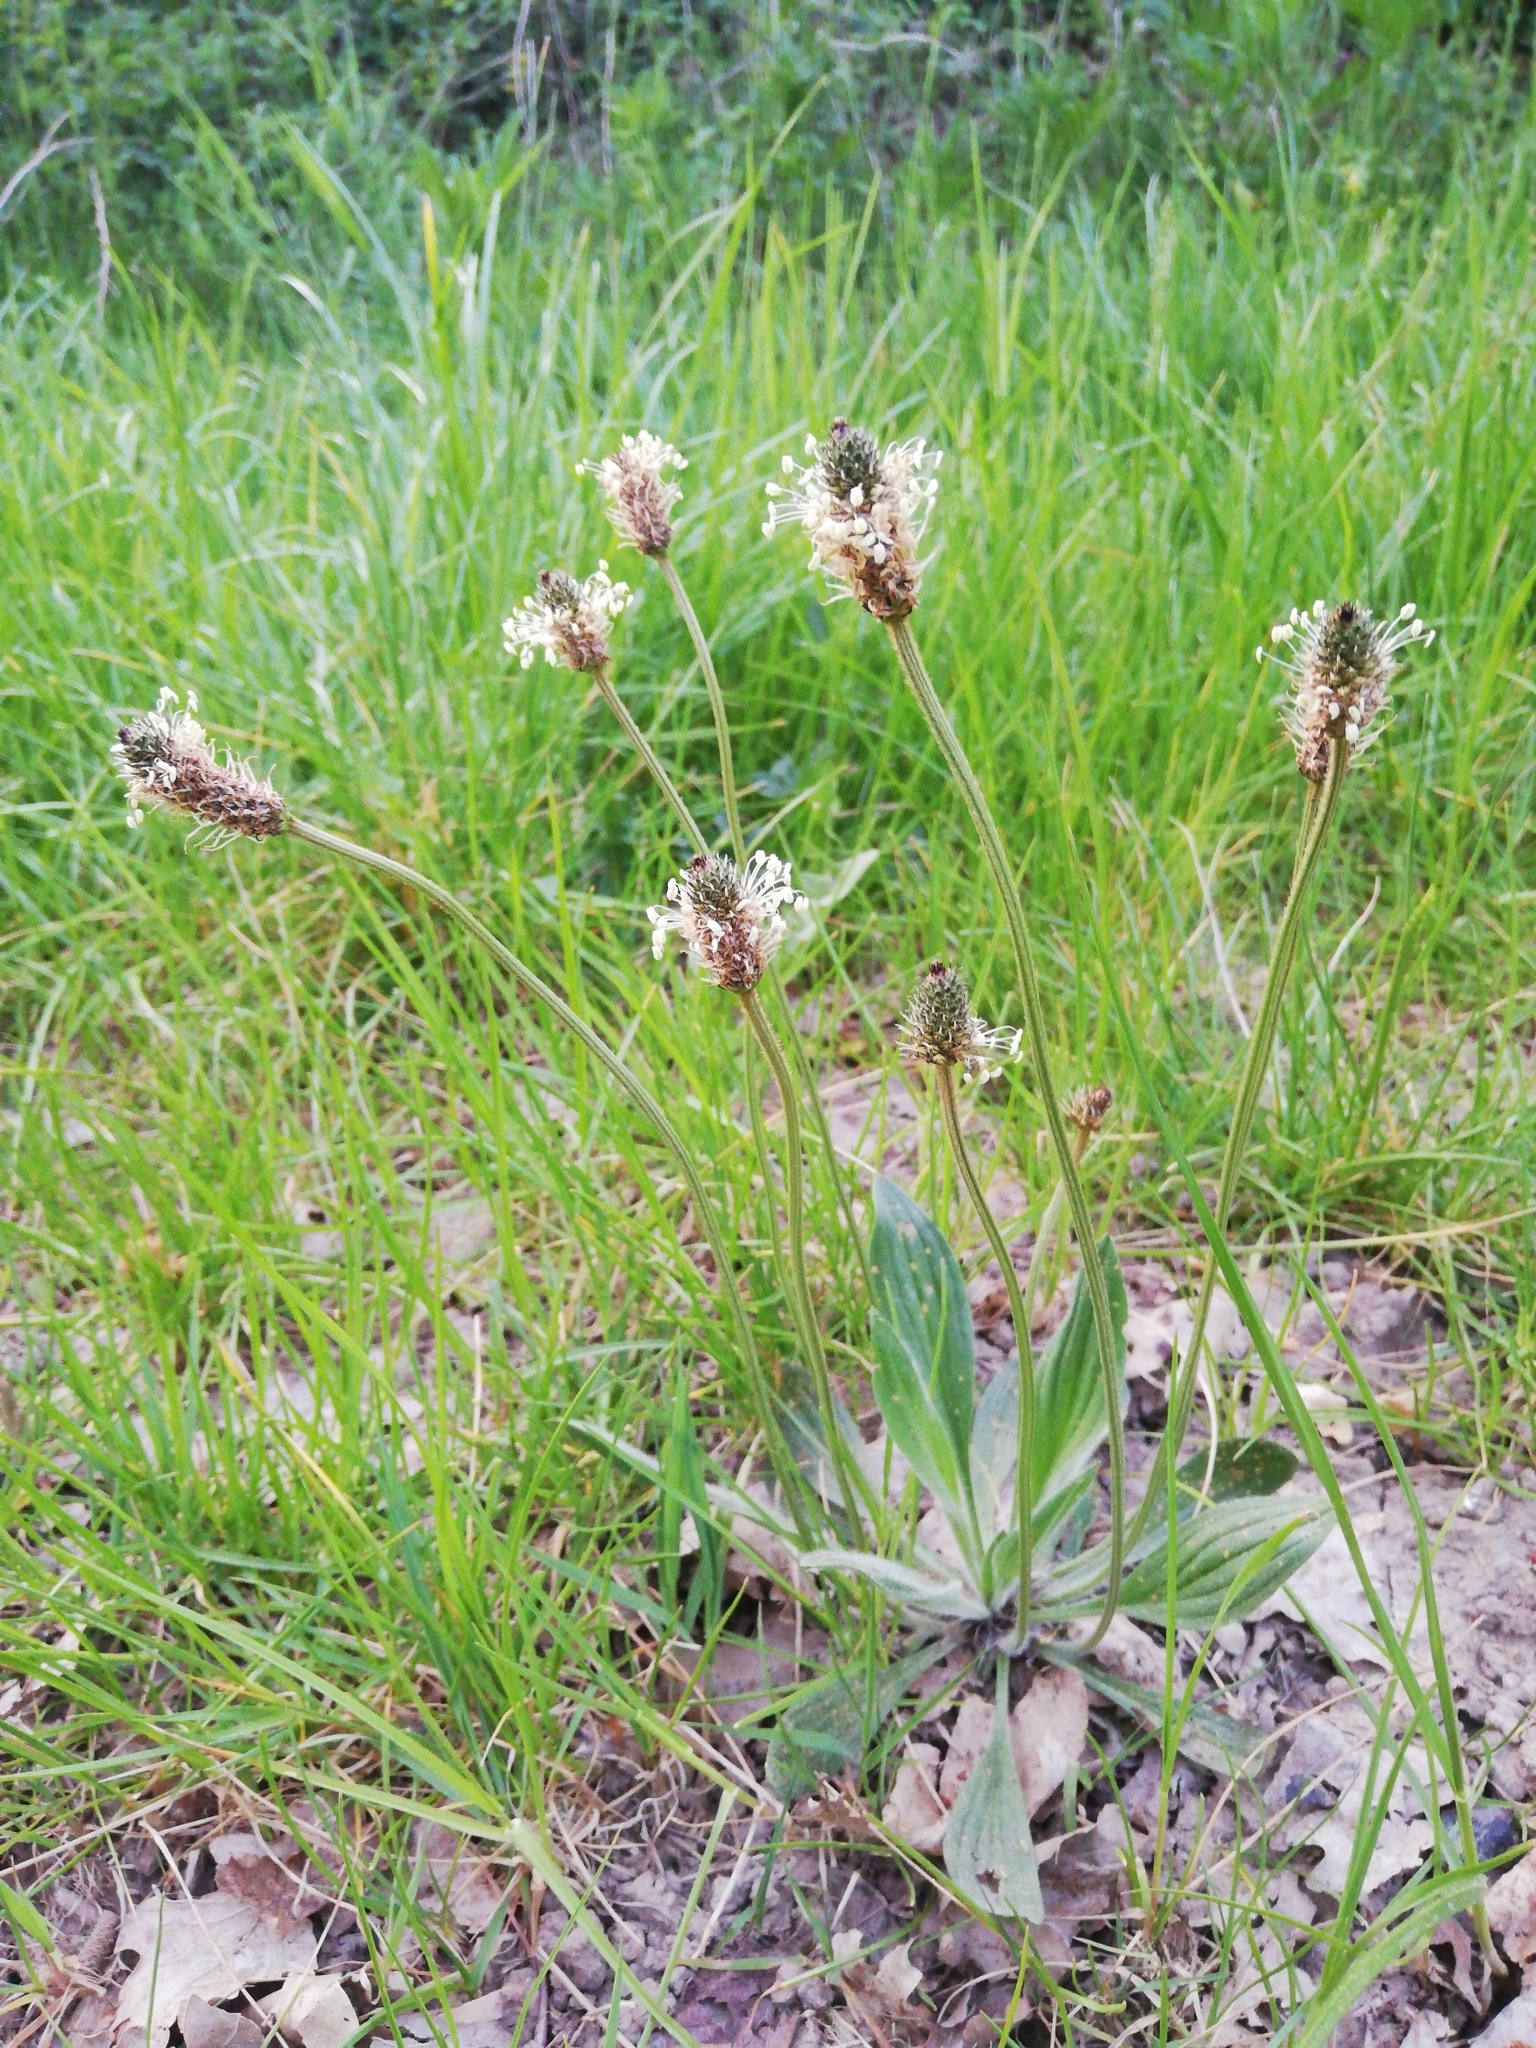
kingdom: Plantae
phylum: Tracheophyta
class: Magnoliopsida
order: Lamiales
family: Plantaginaceae
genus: Plantago
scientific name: Plantago lanceolata
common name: Ribwort plantain
